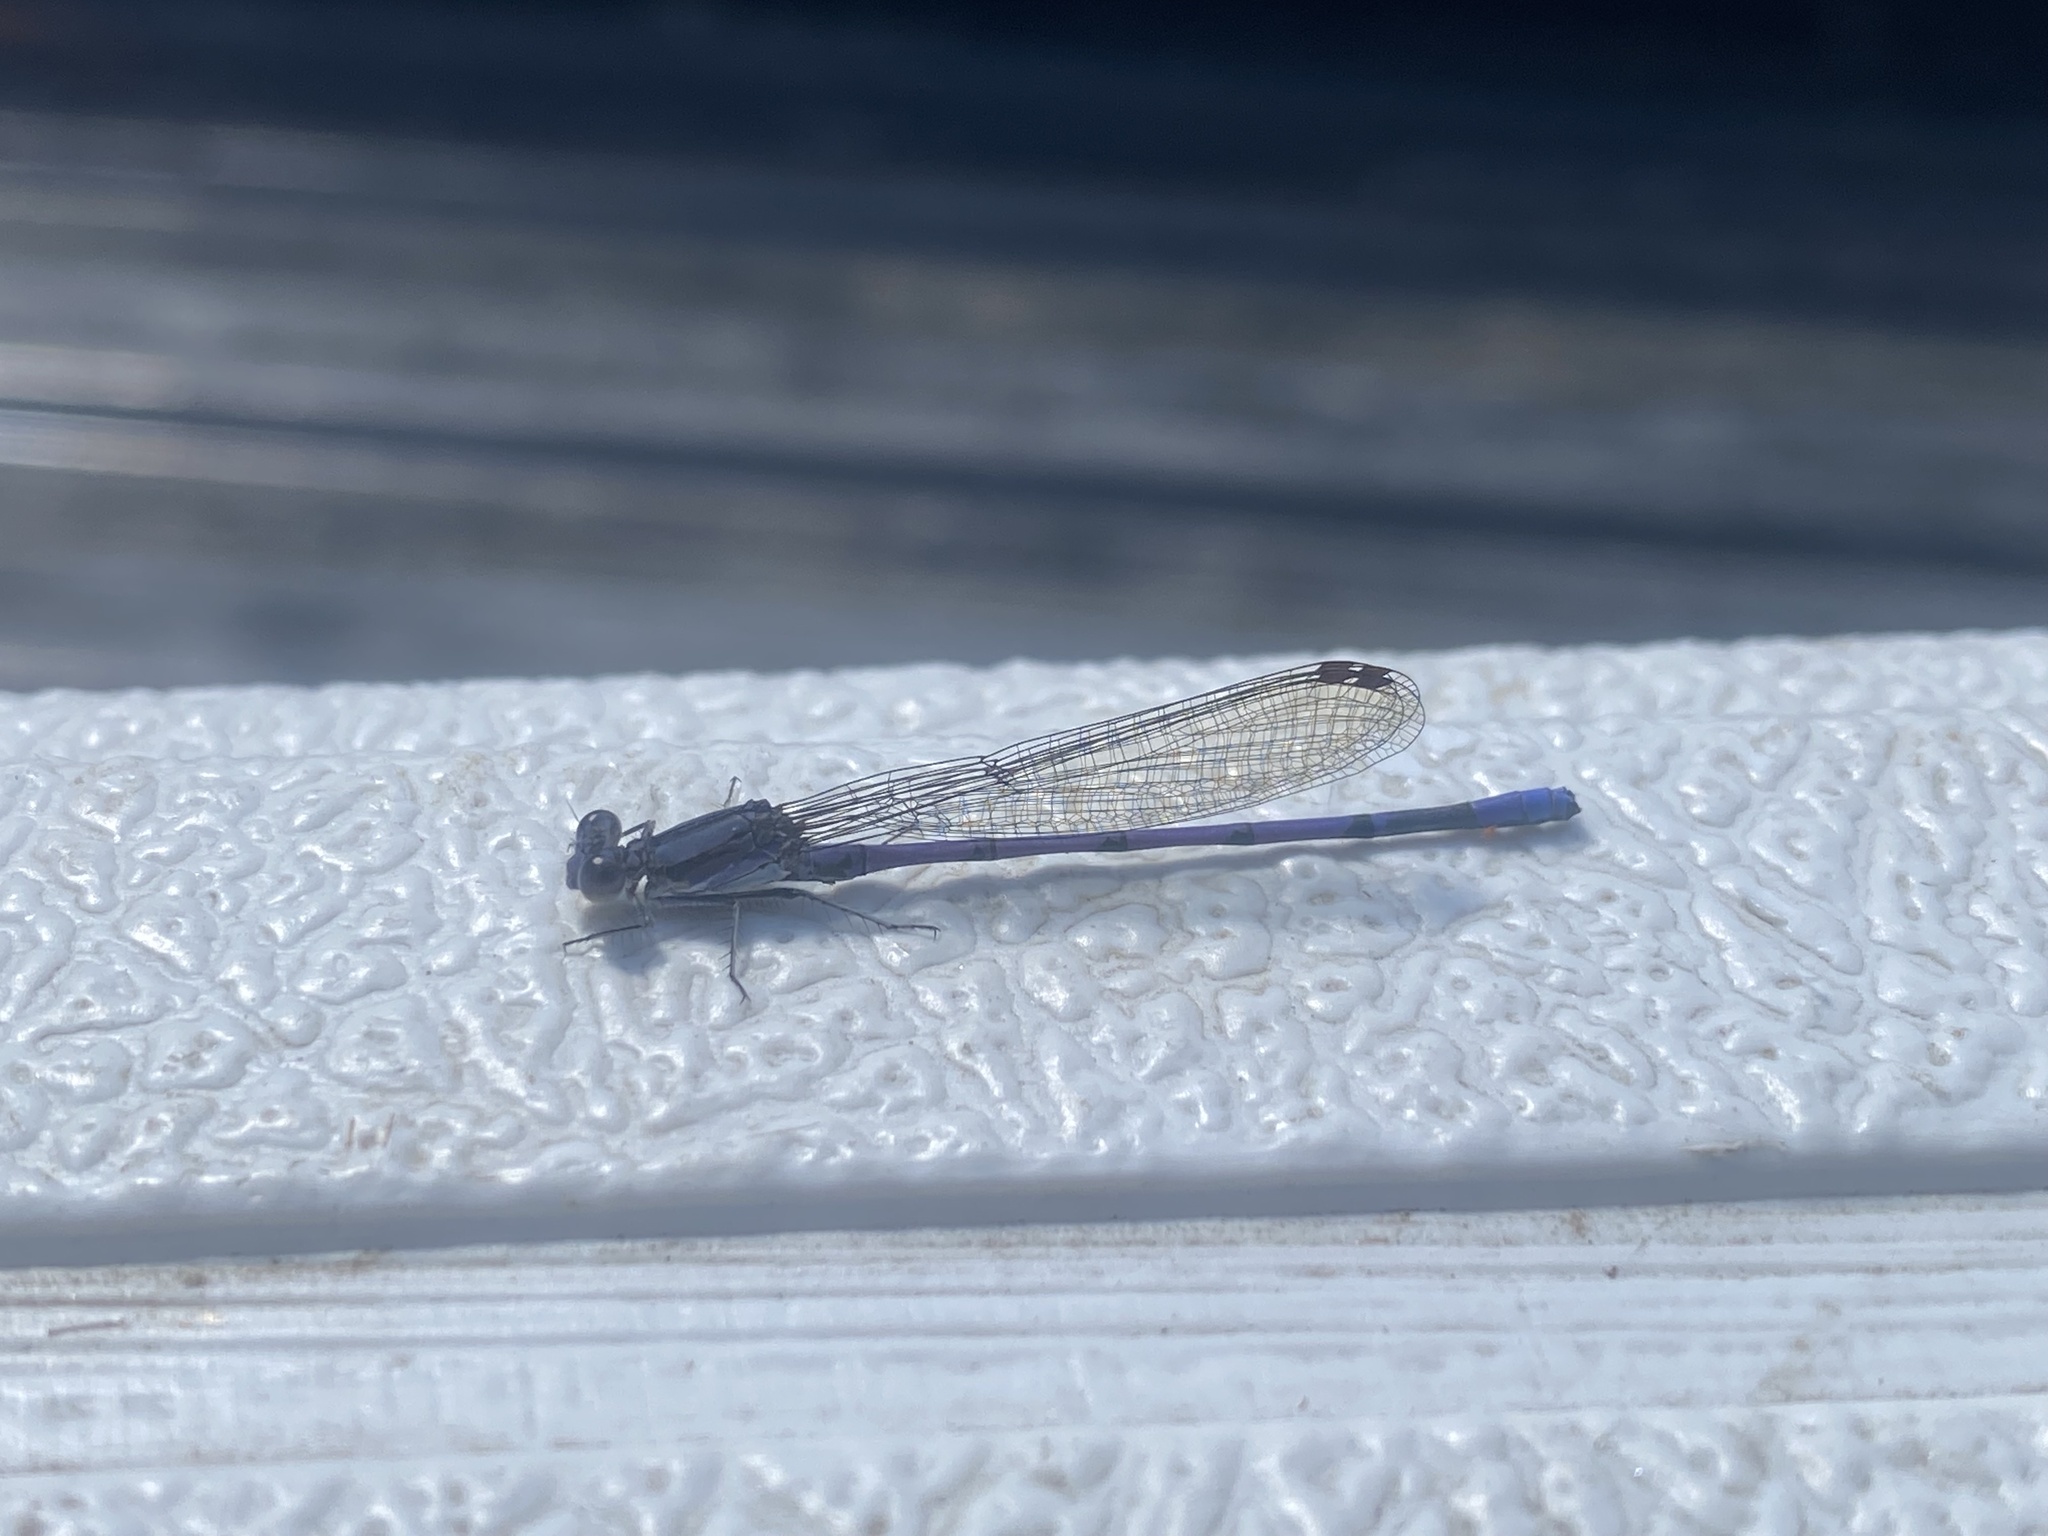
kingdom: Animalia
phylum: Arthropoda
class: Insecta
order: Odonata
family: Coenagrionidae
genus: Argia
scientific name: Argia fumipennis
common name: Variable dancer
